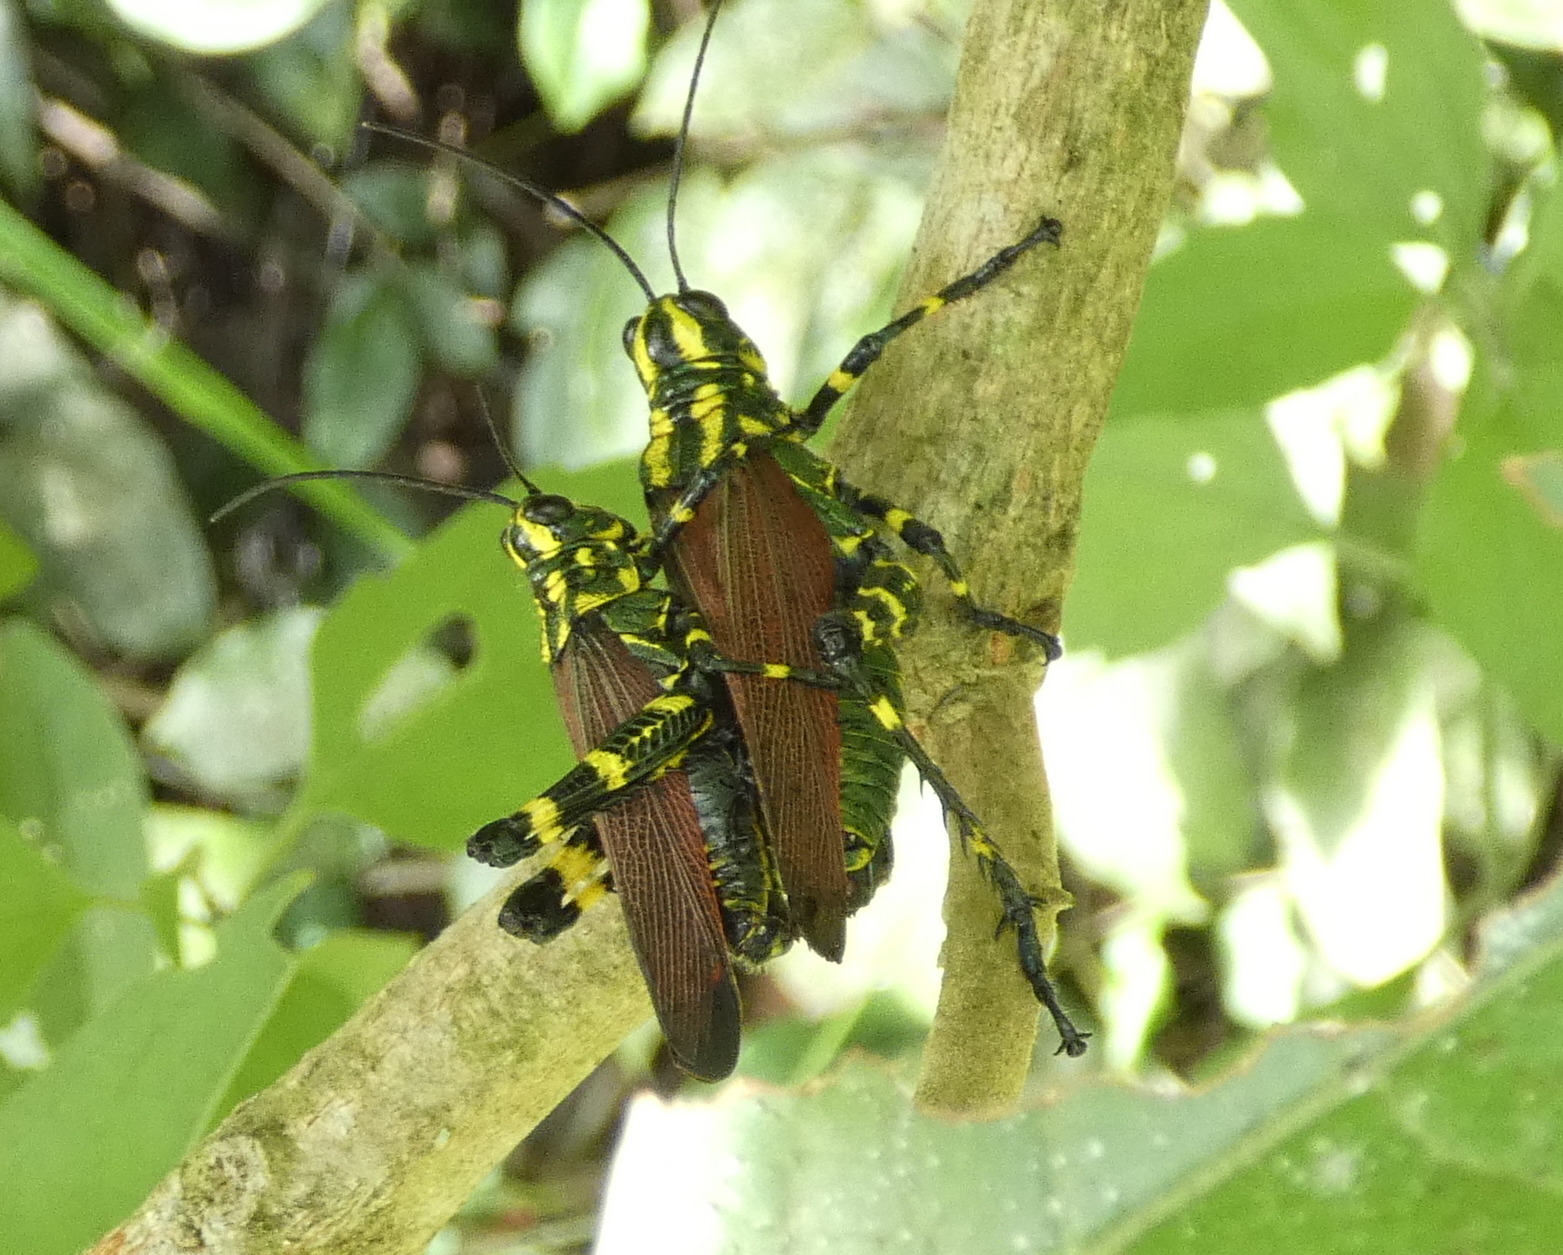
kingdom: Animalia
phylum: Arthropoda
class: Insecta
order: Orthoptera
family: Romaleidae
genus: Chromacris
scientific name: Chromacris speciosa
